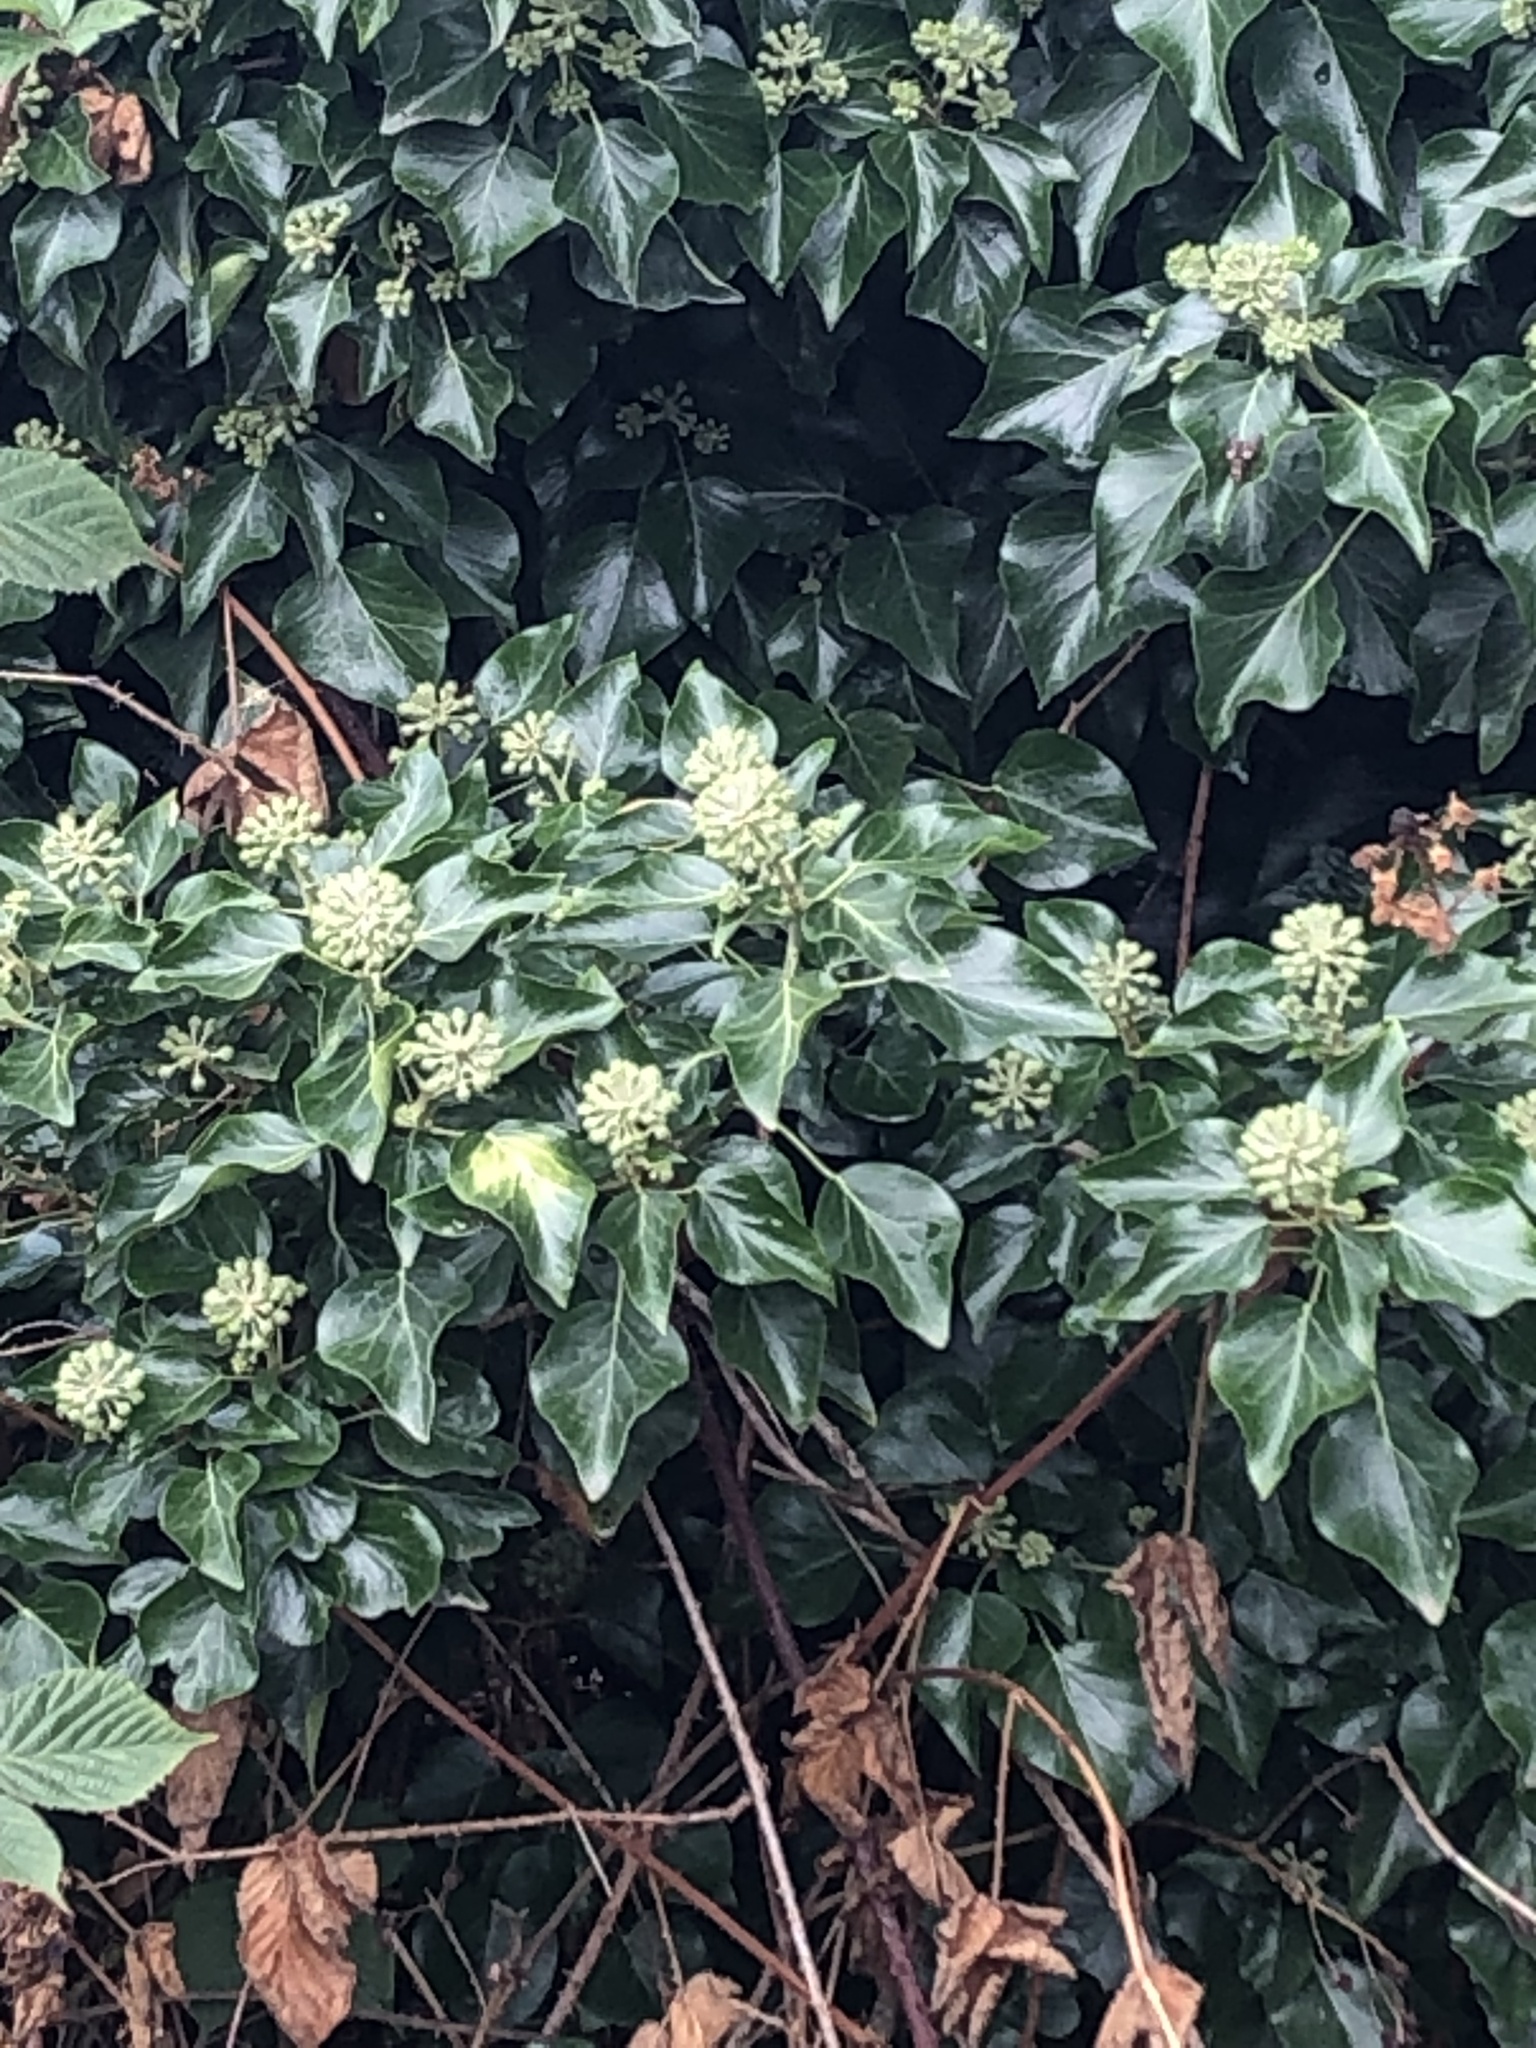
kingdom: Plantae
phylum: Tracheophyta
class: Magnoliopsida
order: Apiales
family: Araliaceae
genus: Hedera
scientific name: Hedera helix
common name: Ivy
